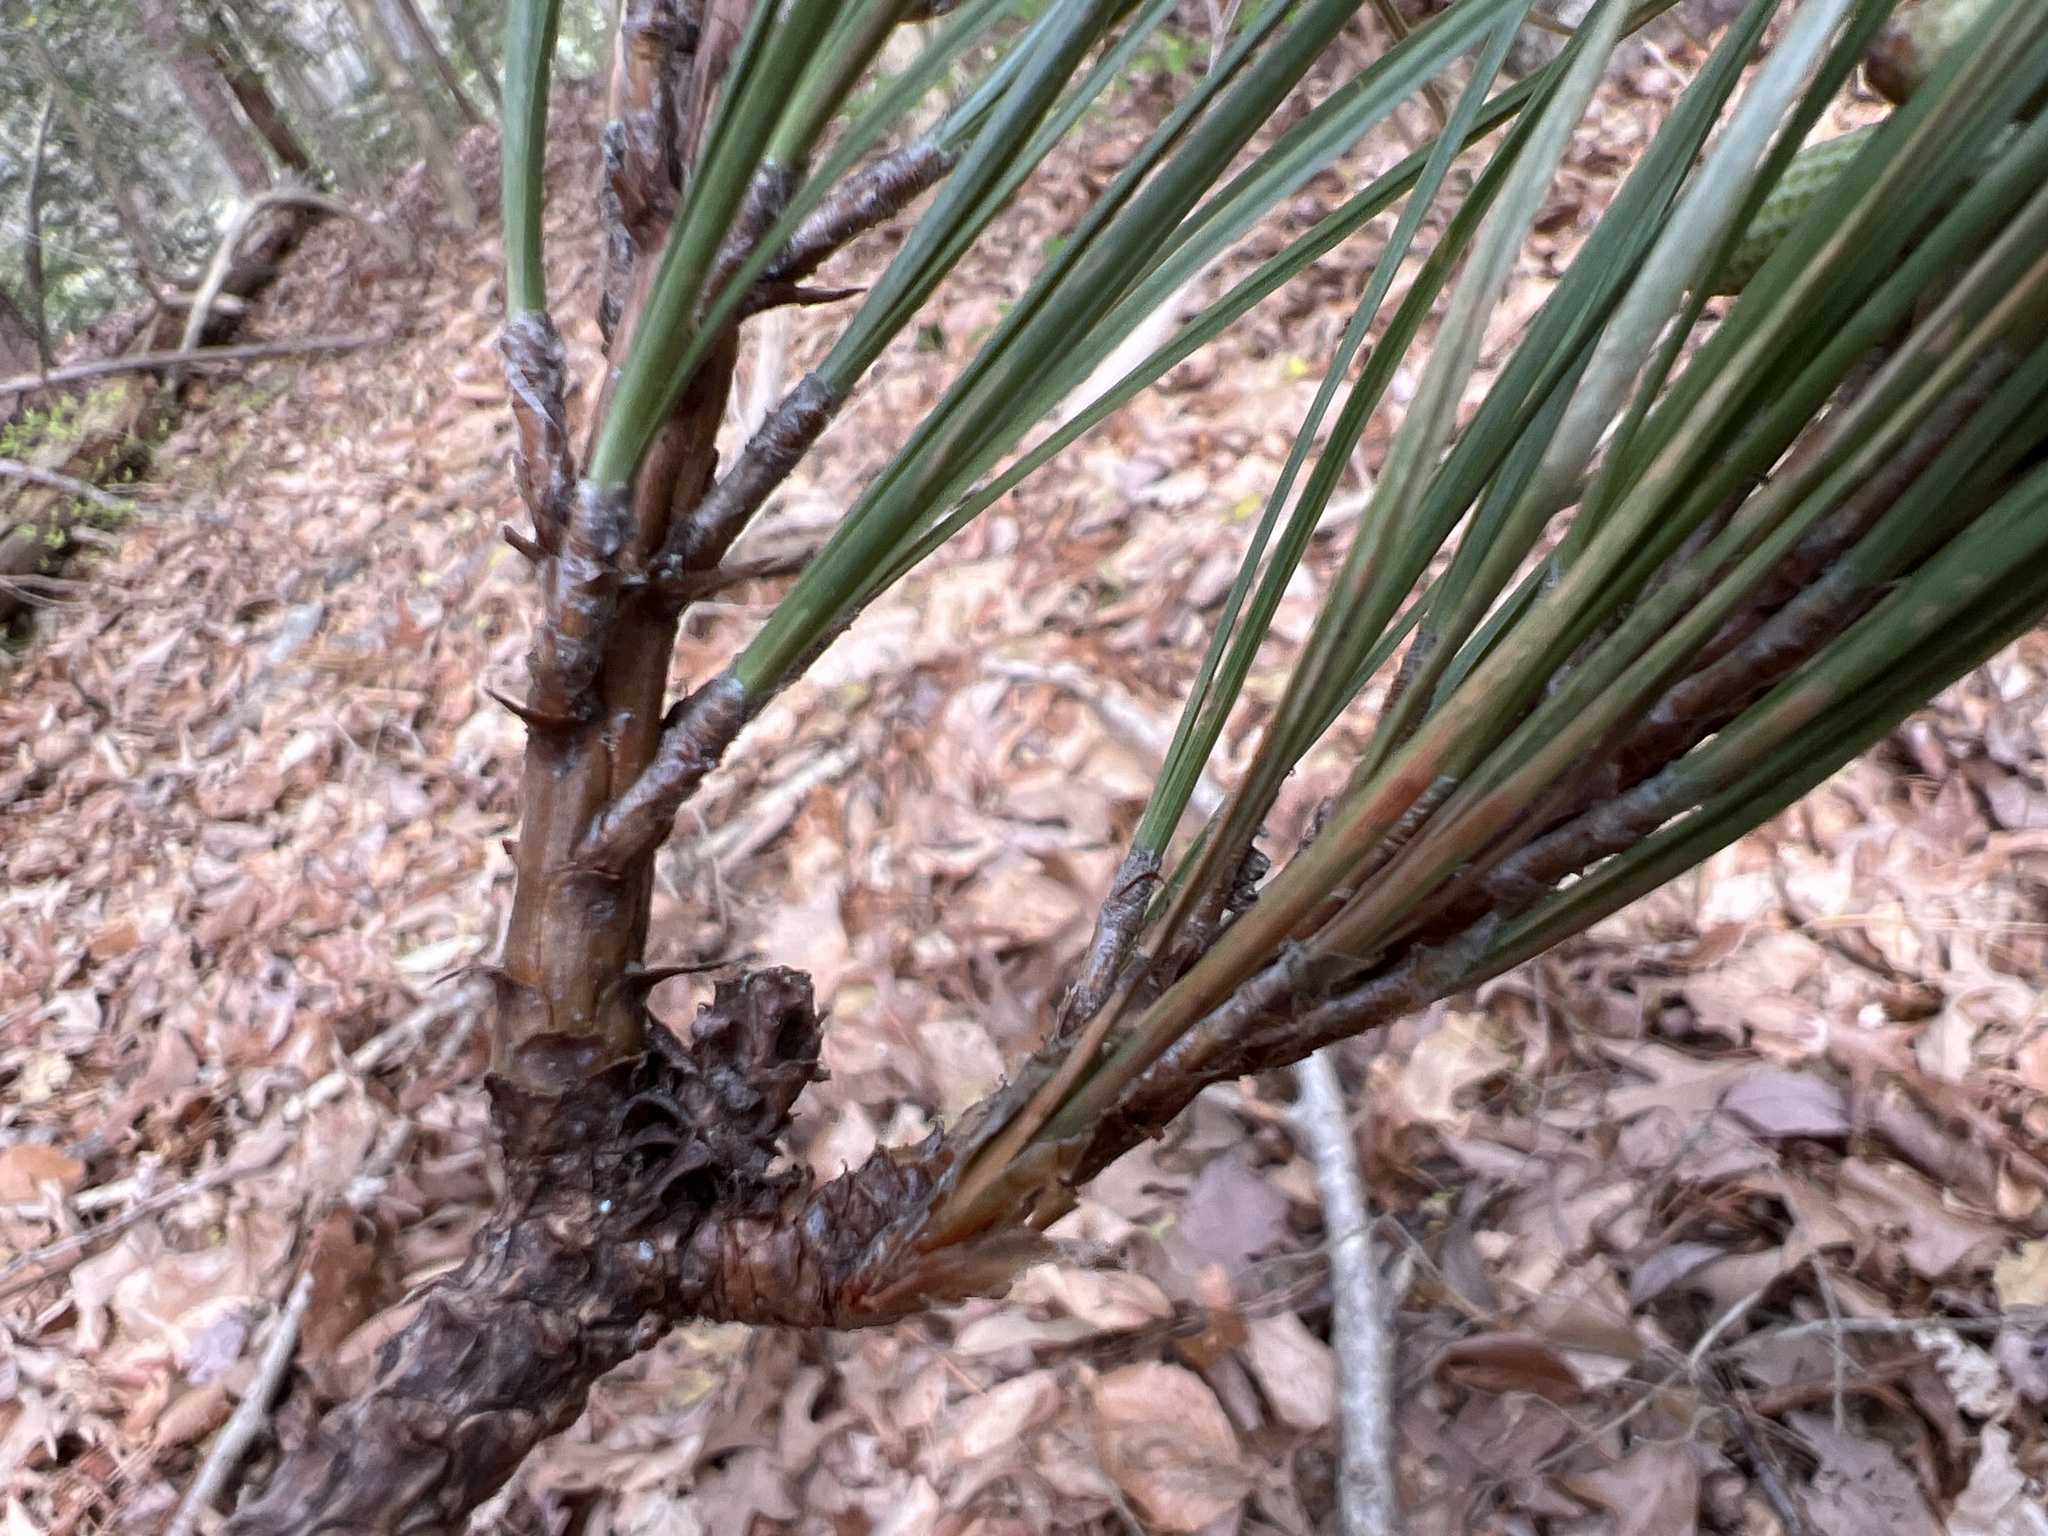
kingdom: Plantae
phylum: Tracheophyta
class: Pinopsida
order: Pinales
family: Pinaceae
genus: Pinus
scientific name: Pinus taeda
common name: Loblolly pine
